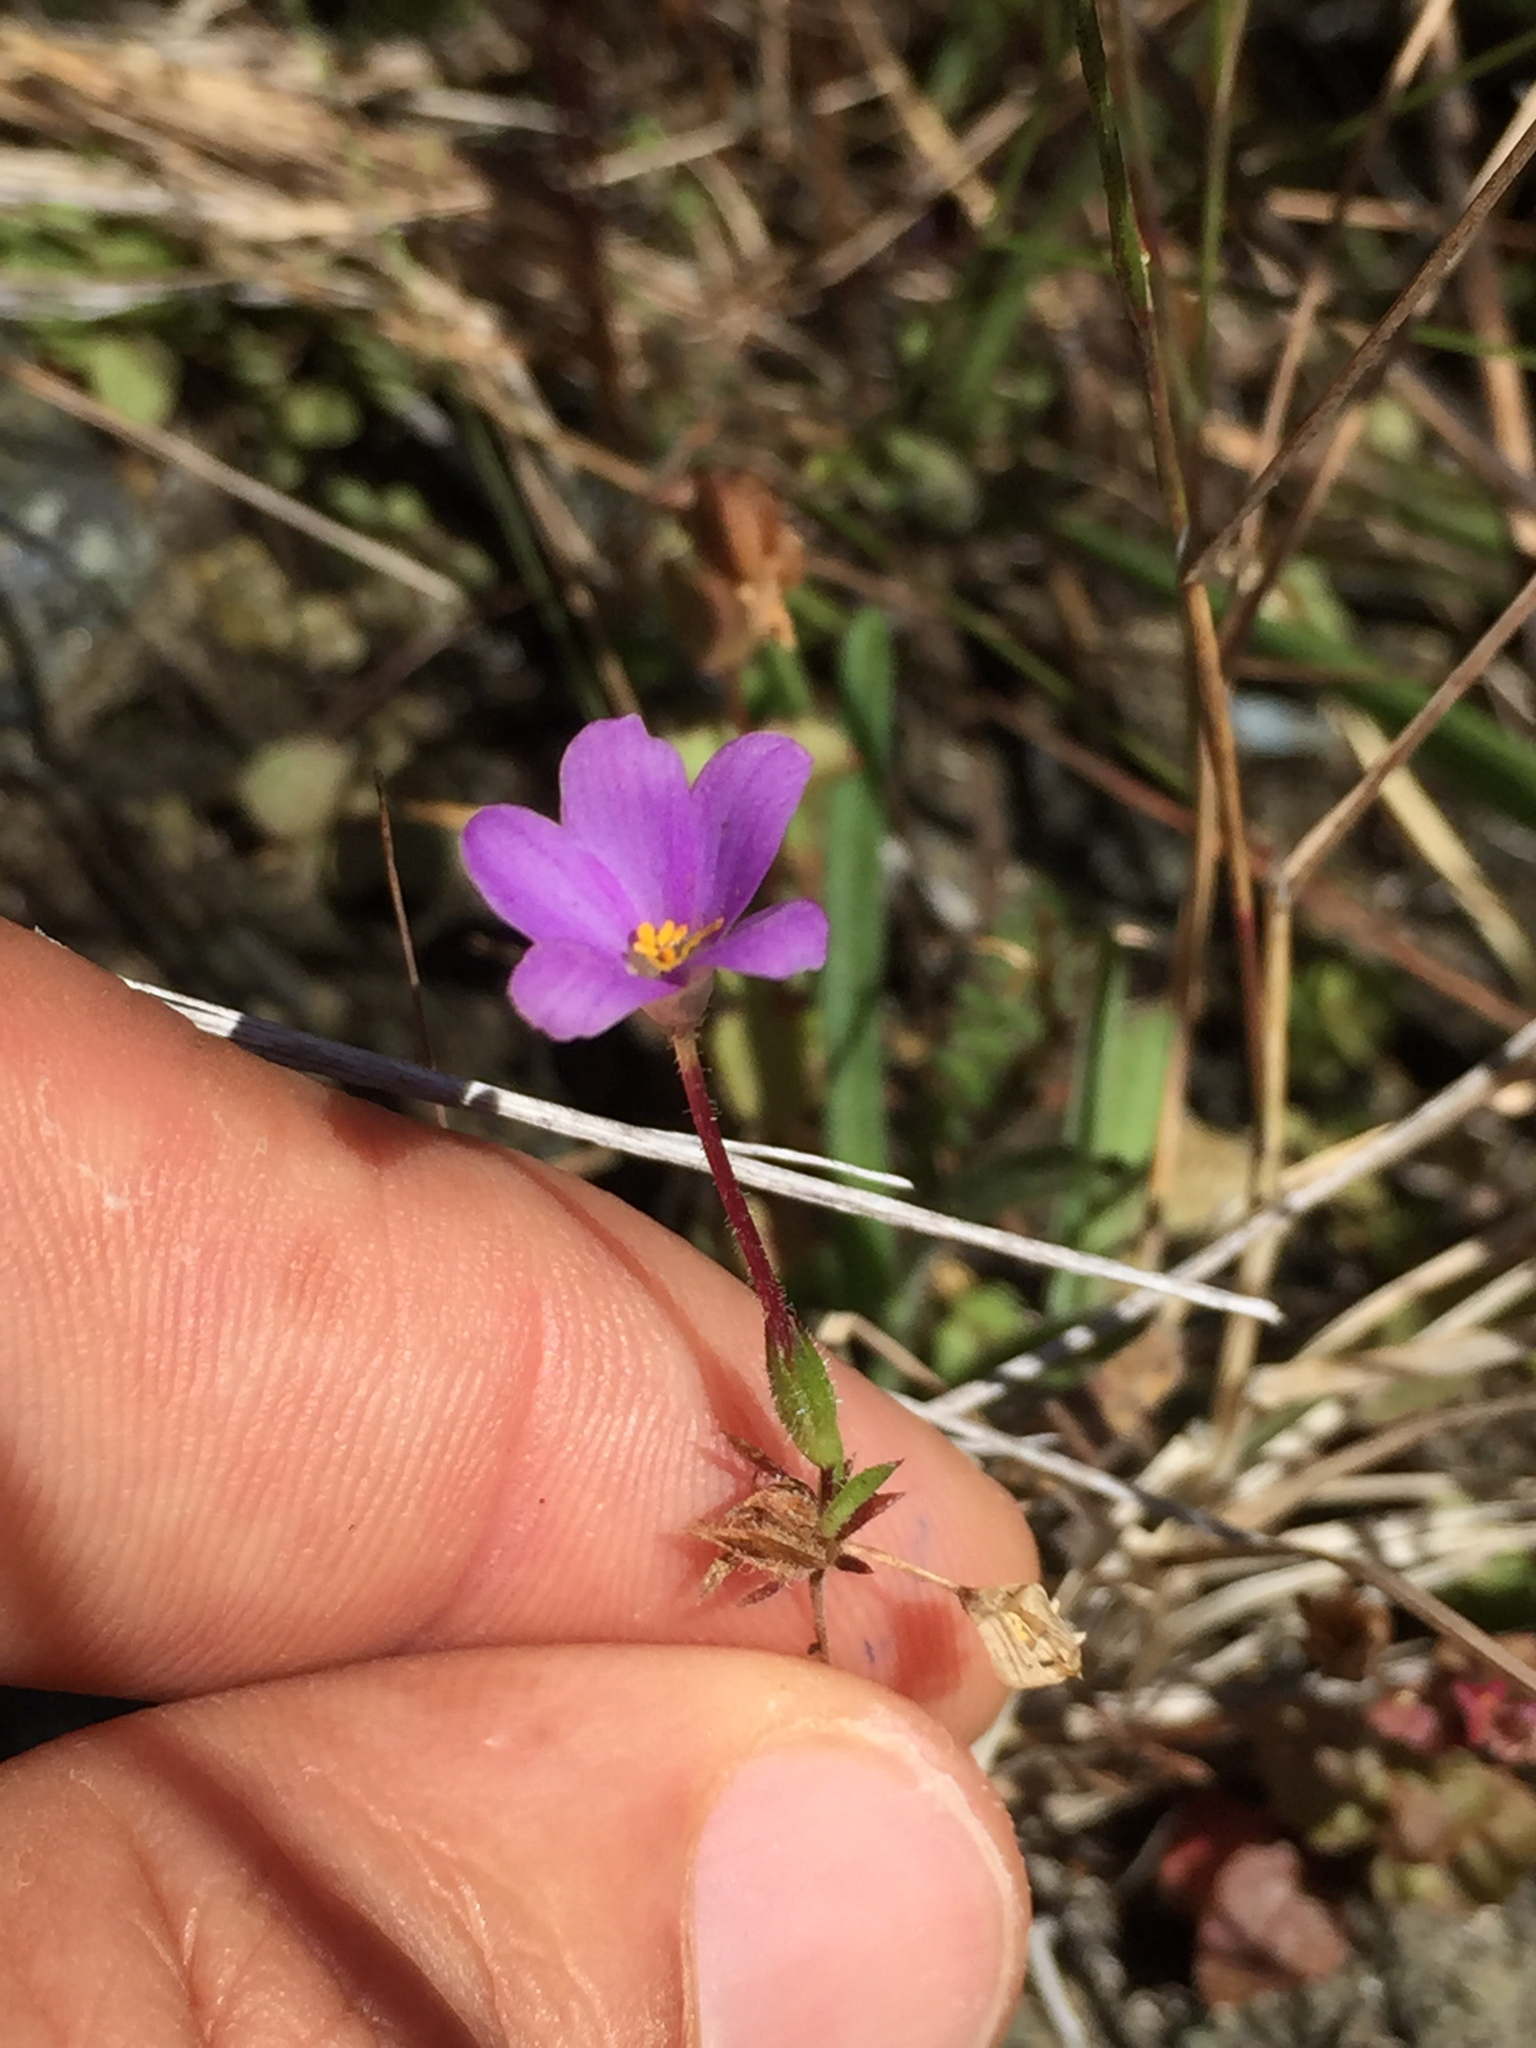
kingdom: Plantae
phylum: Tracheophyta
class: Magnoliopsida
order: Ericales
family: Polemoniaceae
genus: Leptosiphon
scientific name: Leptosiphon androsaceus
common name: False babystars
